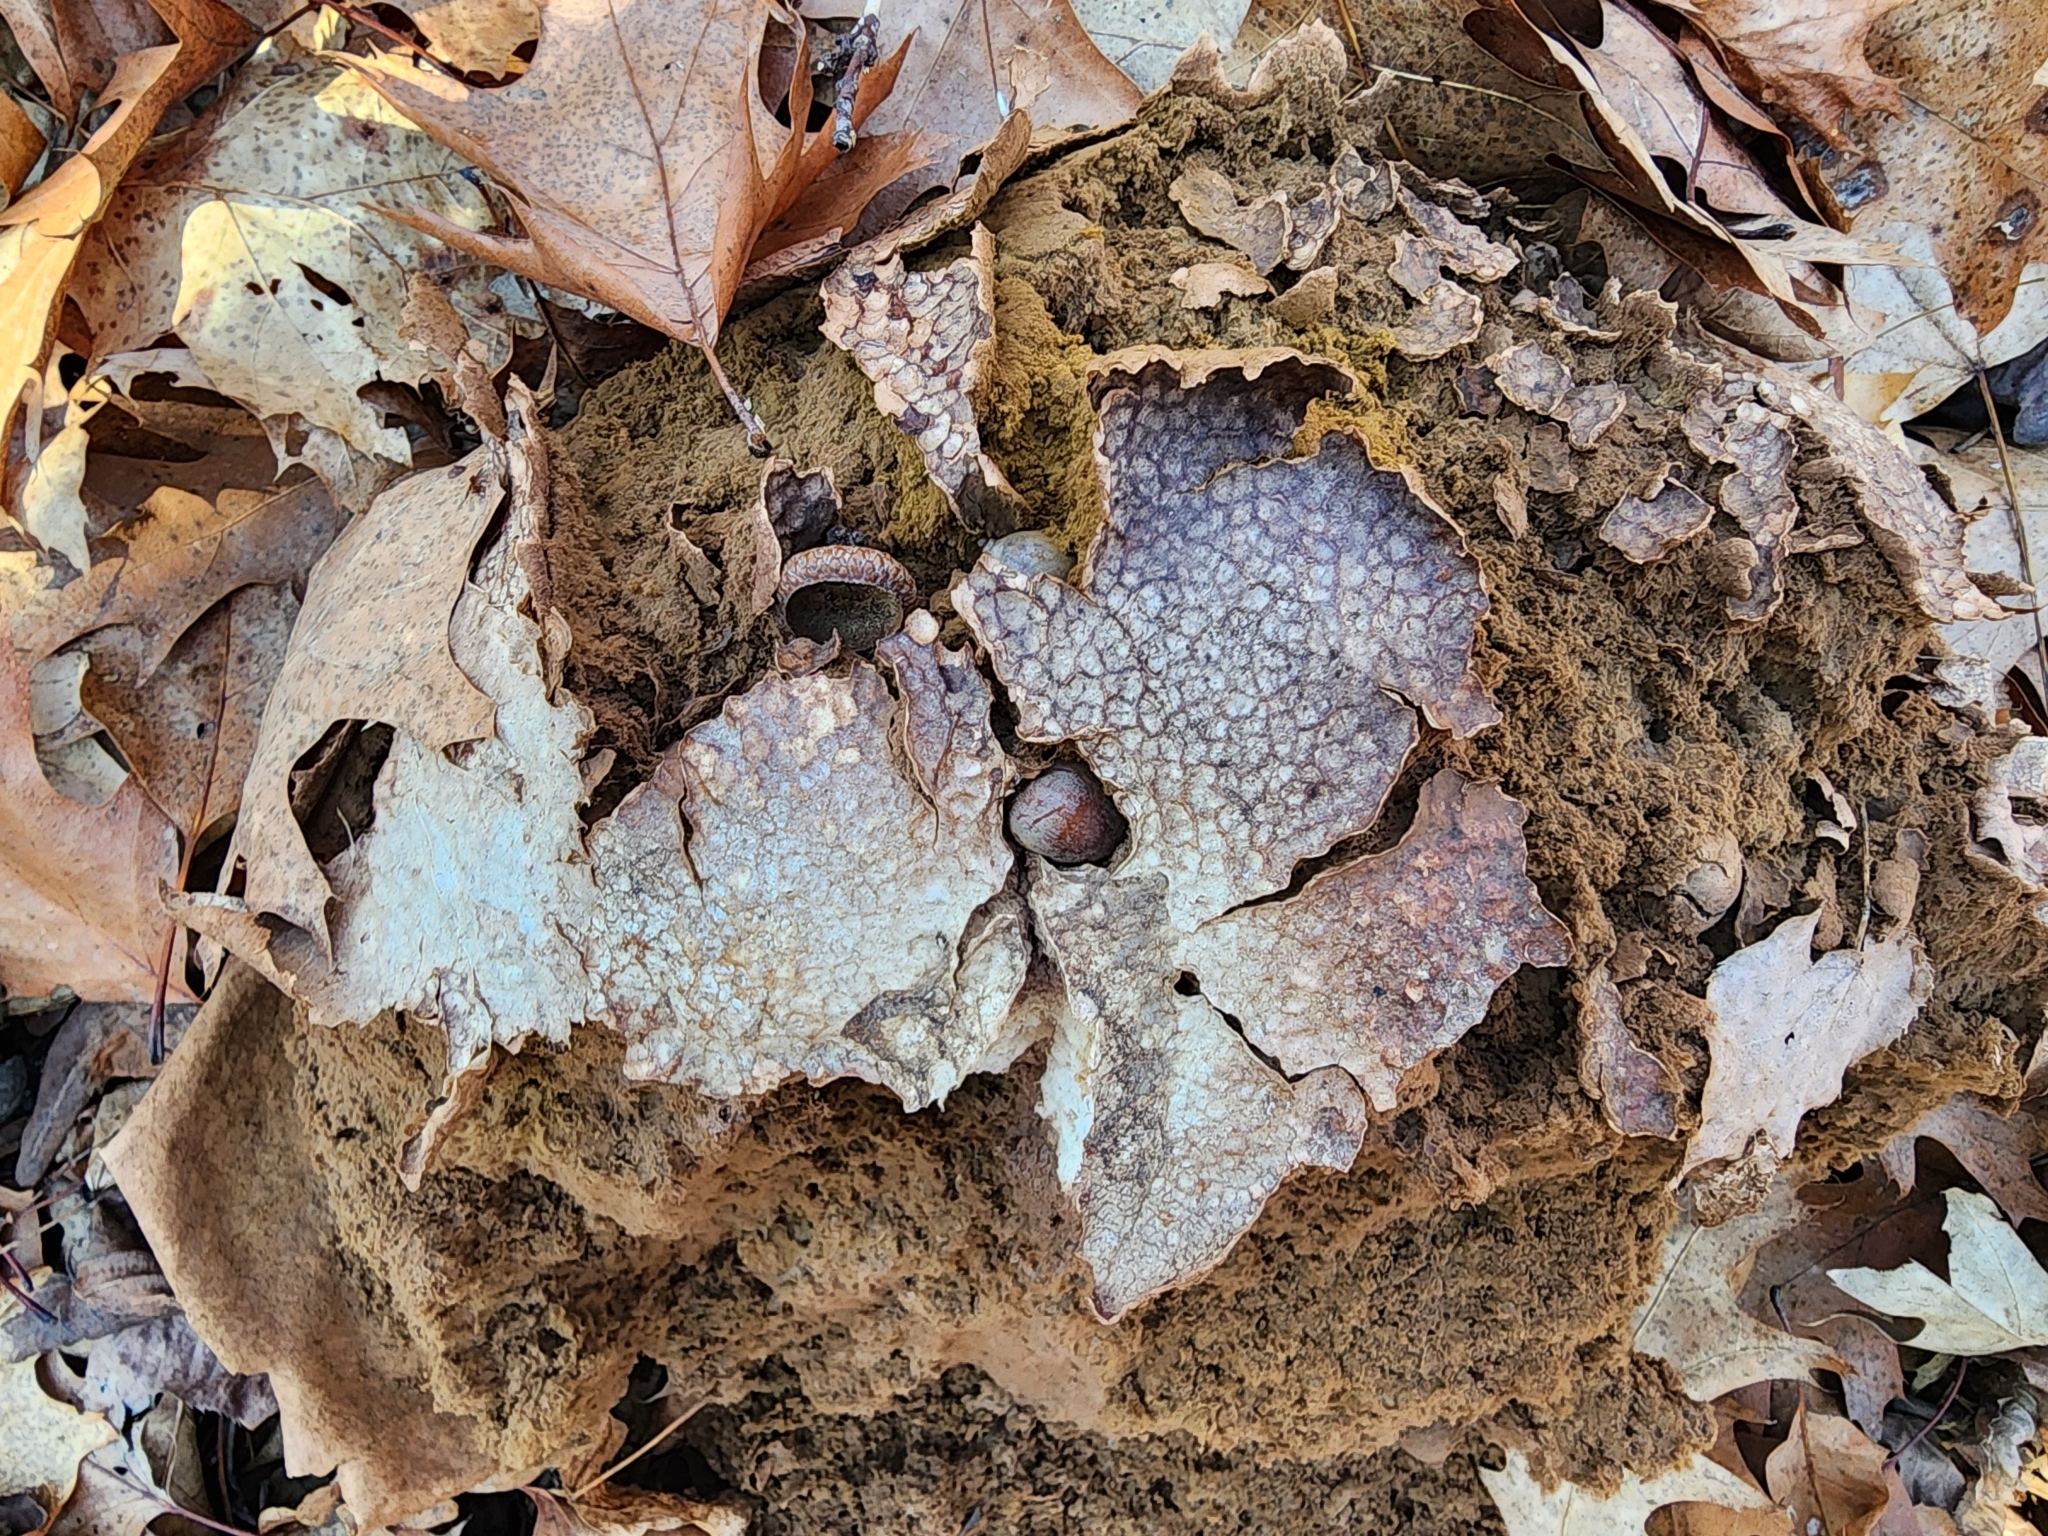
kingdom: Fungi
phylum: Basidiomycota
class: Agaricomycetes
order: Agaricales
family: Lycoperdaceae
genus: Calvatia
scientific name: Calvatia gigantea
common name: Giant puffball
